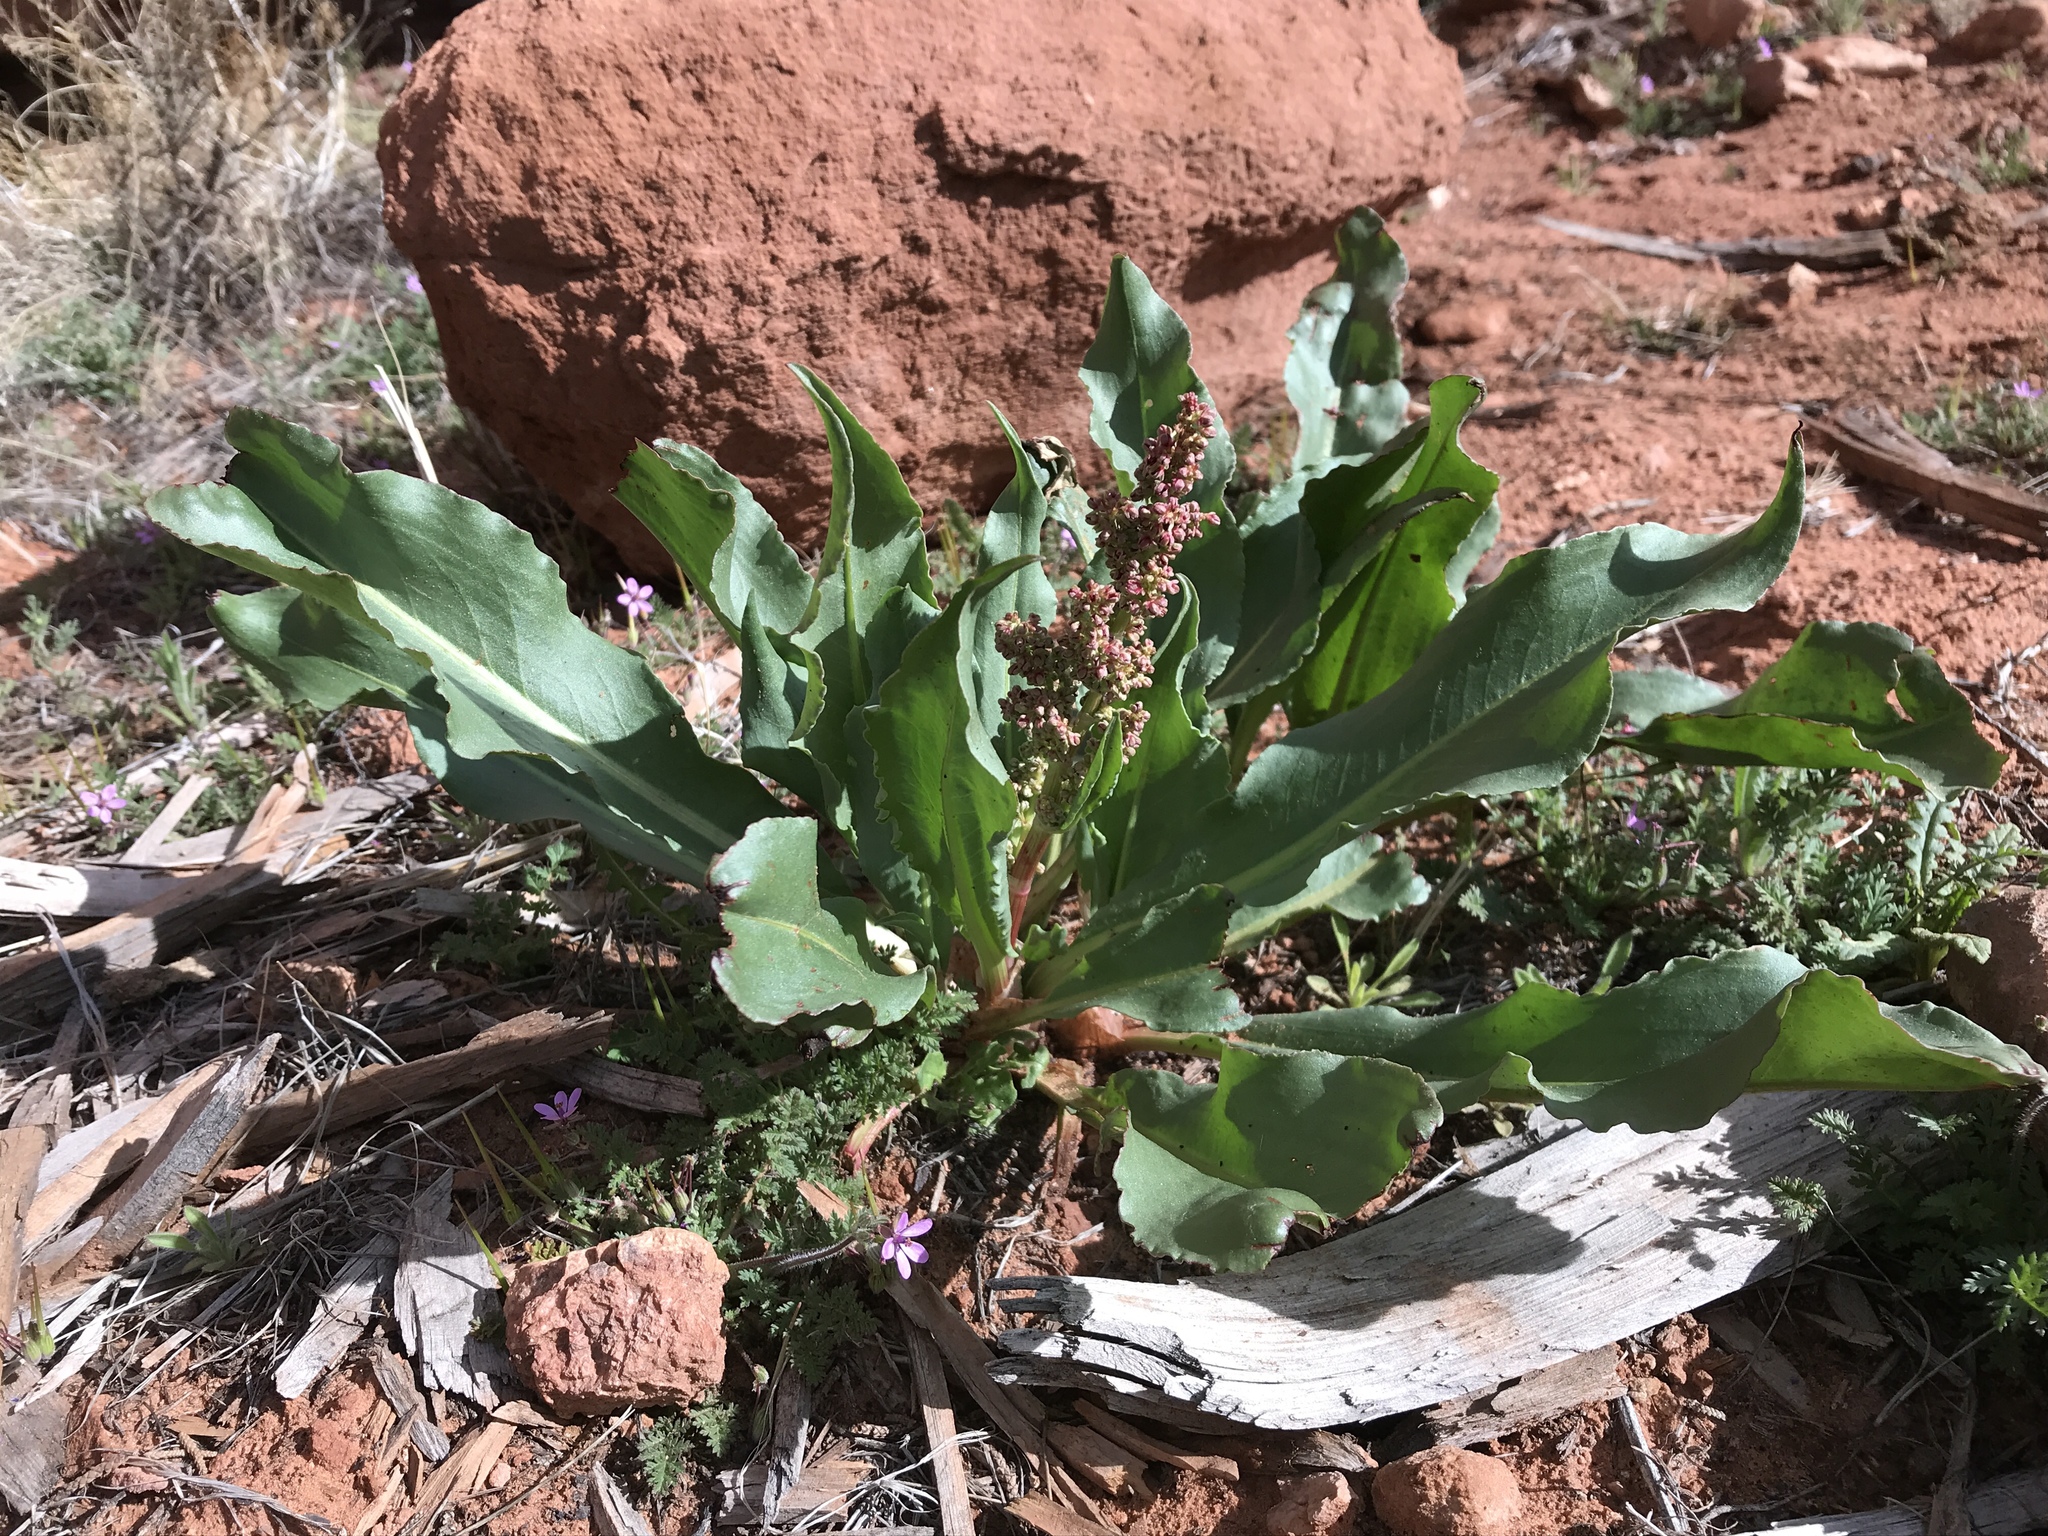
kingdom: Plantae
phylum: Tracheophyta
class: Magnoliopsida
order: Caryophyllales
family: Polygonaceae
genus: Rumex
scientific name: Rumex hymenosepalus
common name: Ganagra
